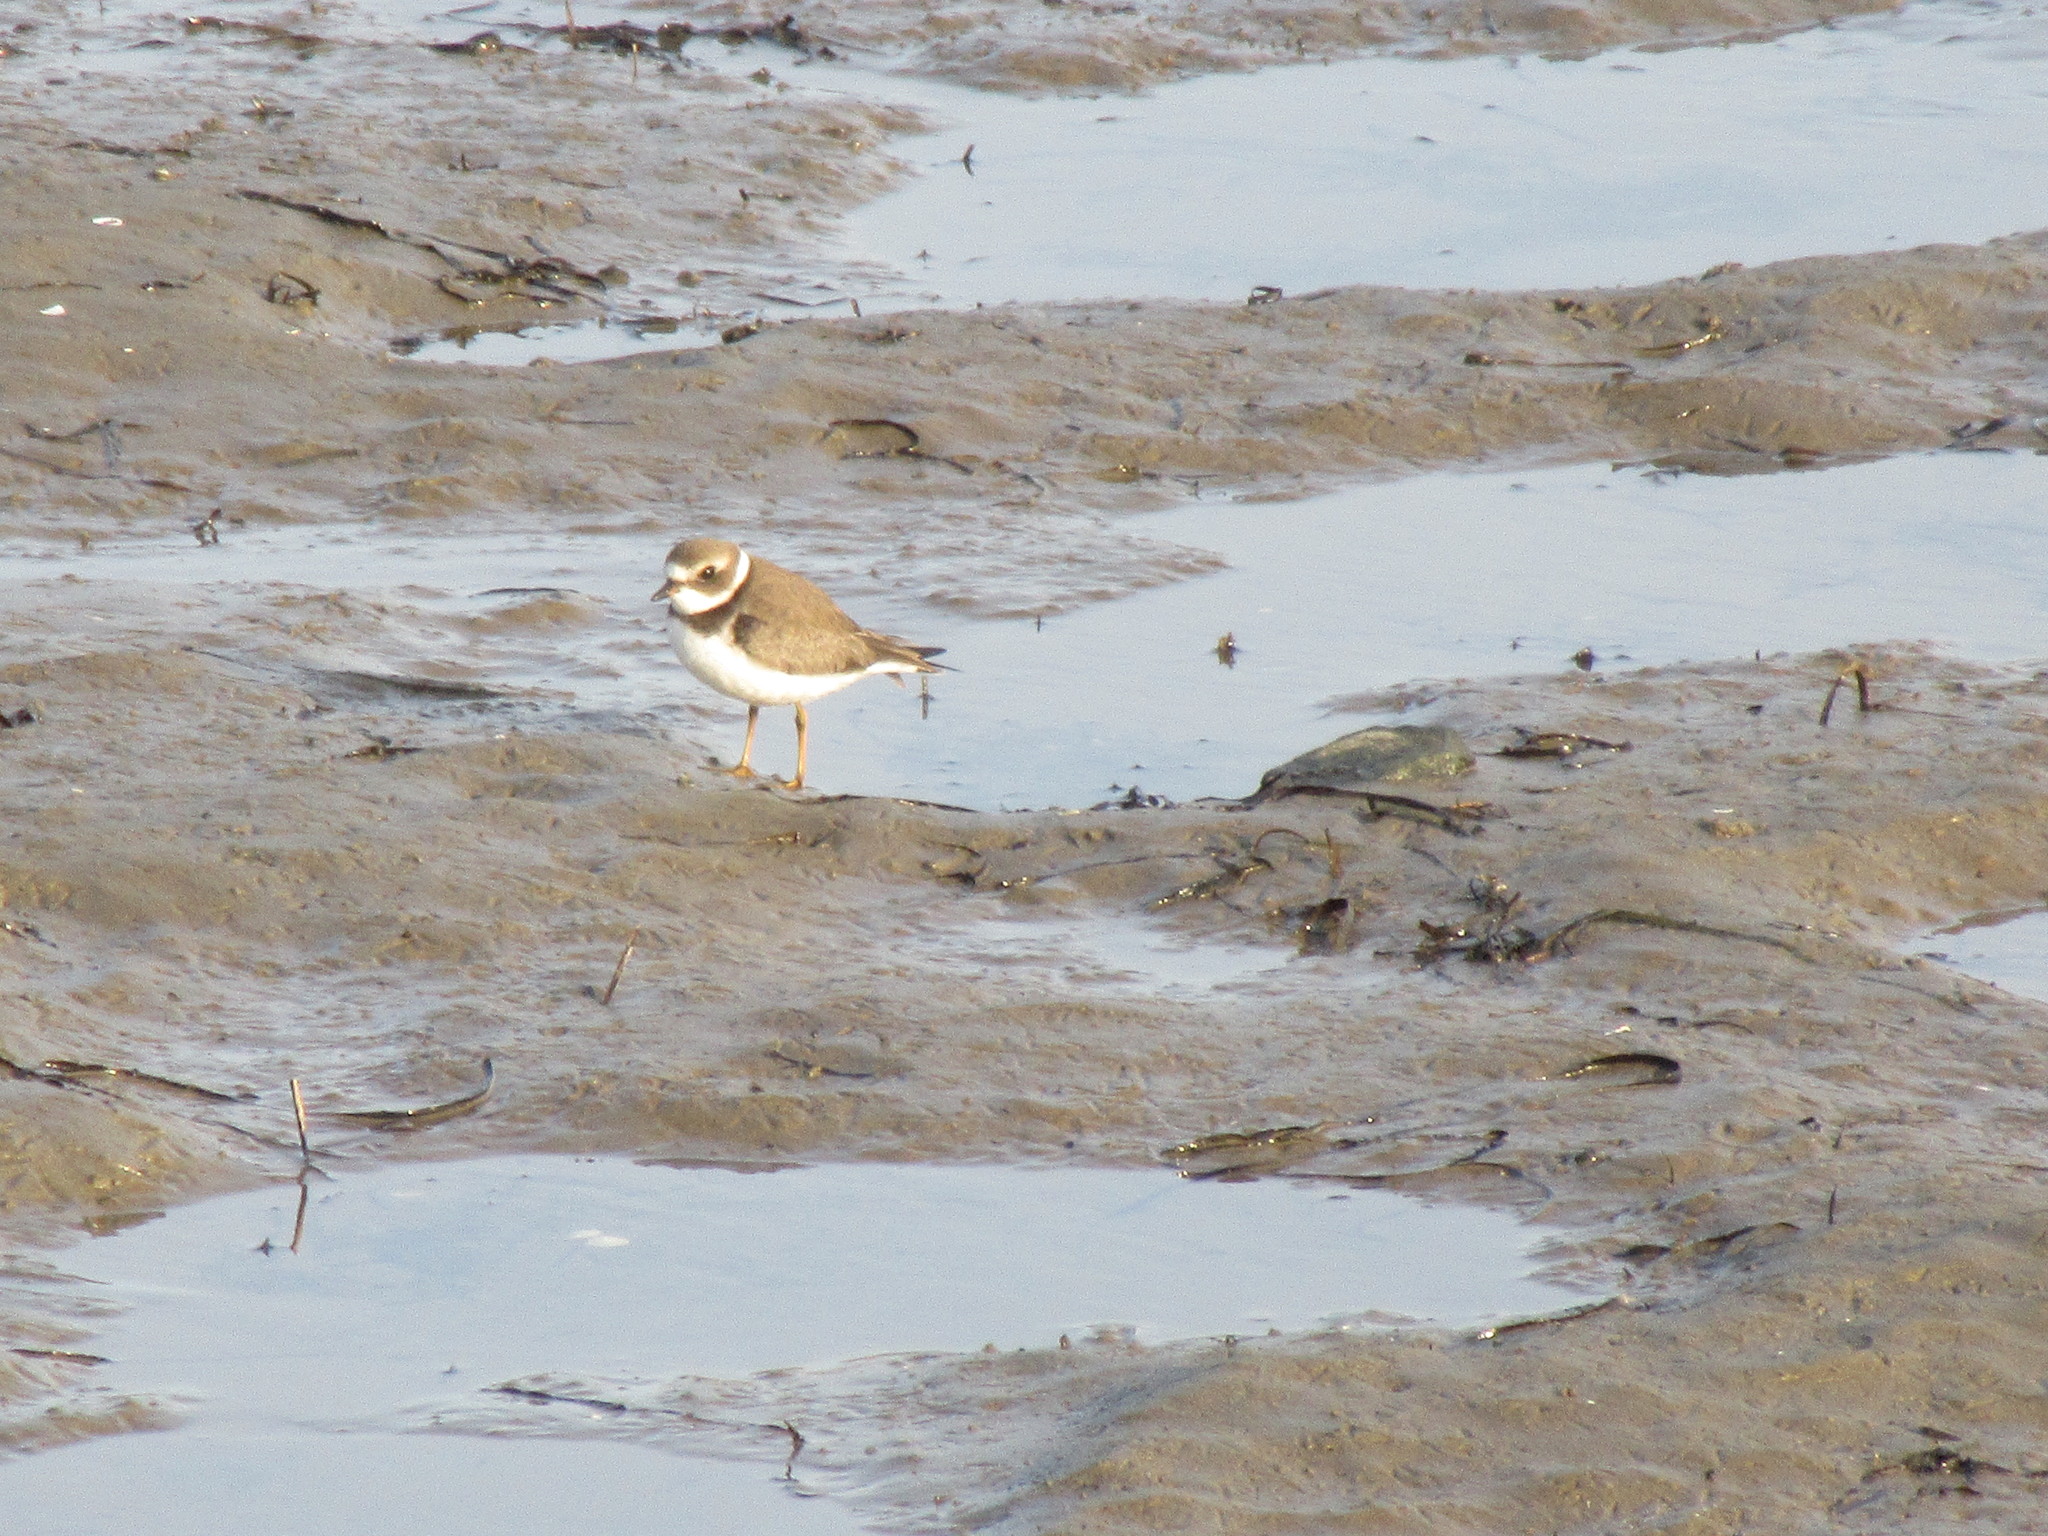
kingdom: Animalia
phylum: Chordata
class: Aves
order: Charadriiformes
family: Charadriidae
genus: Charadrius
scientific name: Charadrius semipalmatus
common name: Semipalmated plover
